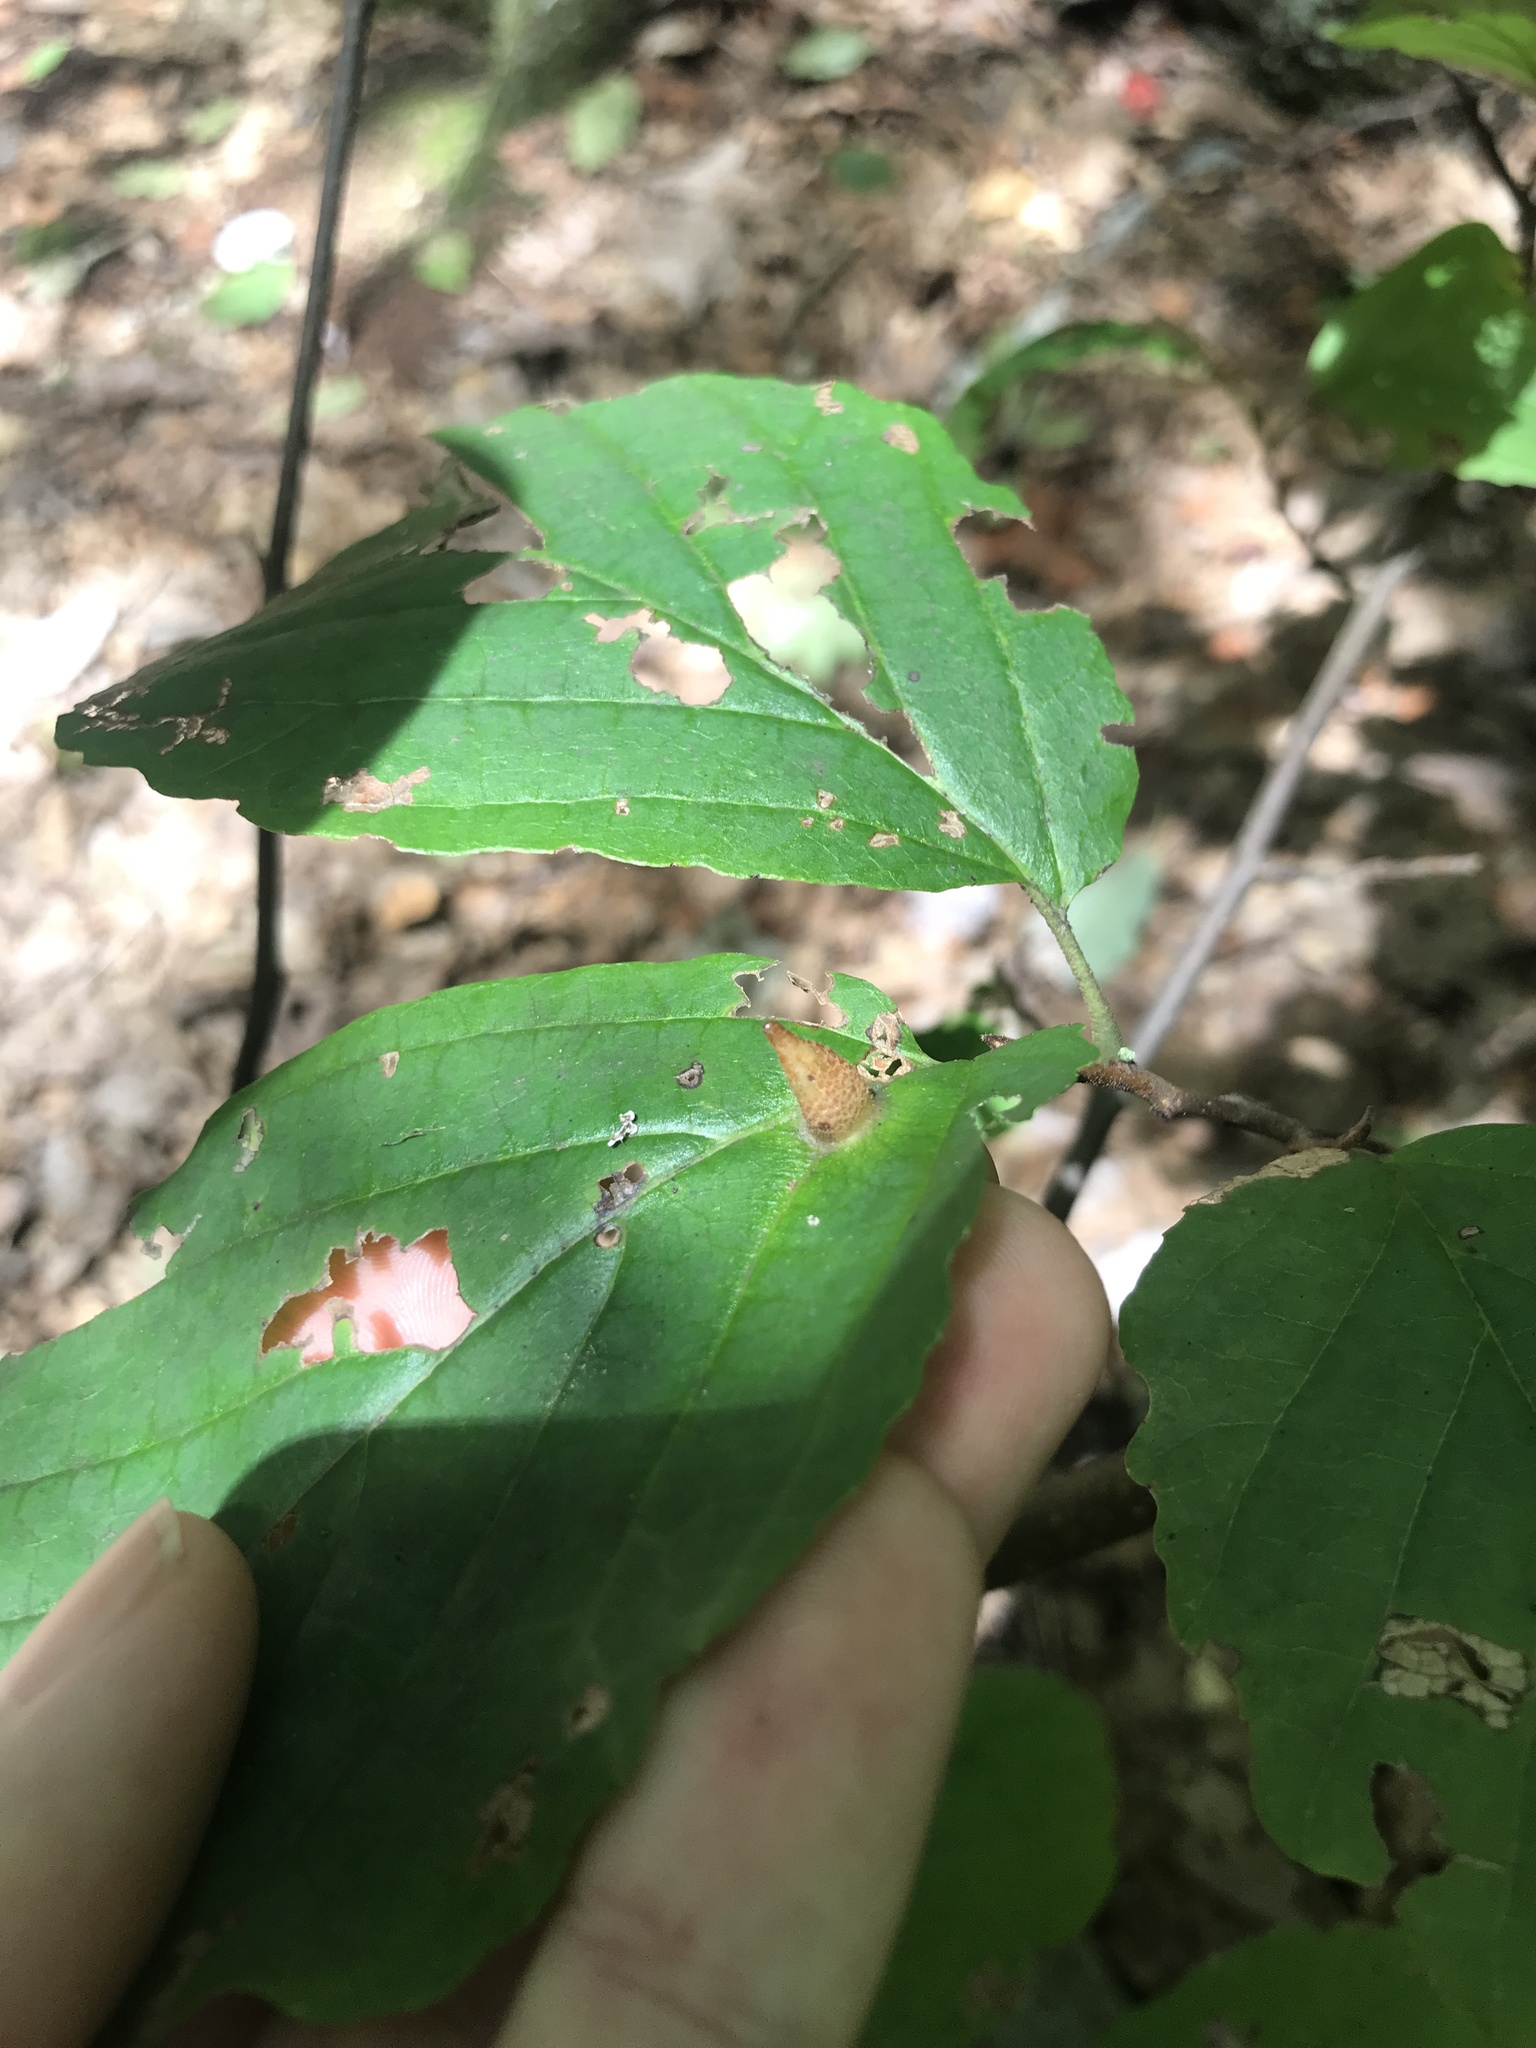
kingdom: Animalia
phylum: Arthropoda
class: Insecta
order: Hemiptera
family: Aphididae
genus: Hormaphis
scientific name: Hormaphis hamamelidis
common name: Witch-hazel cone gall aphid
